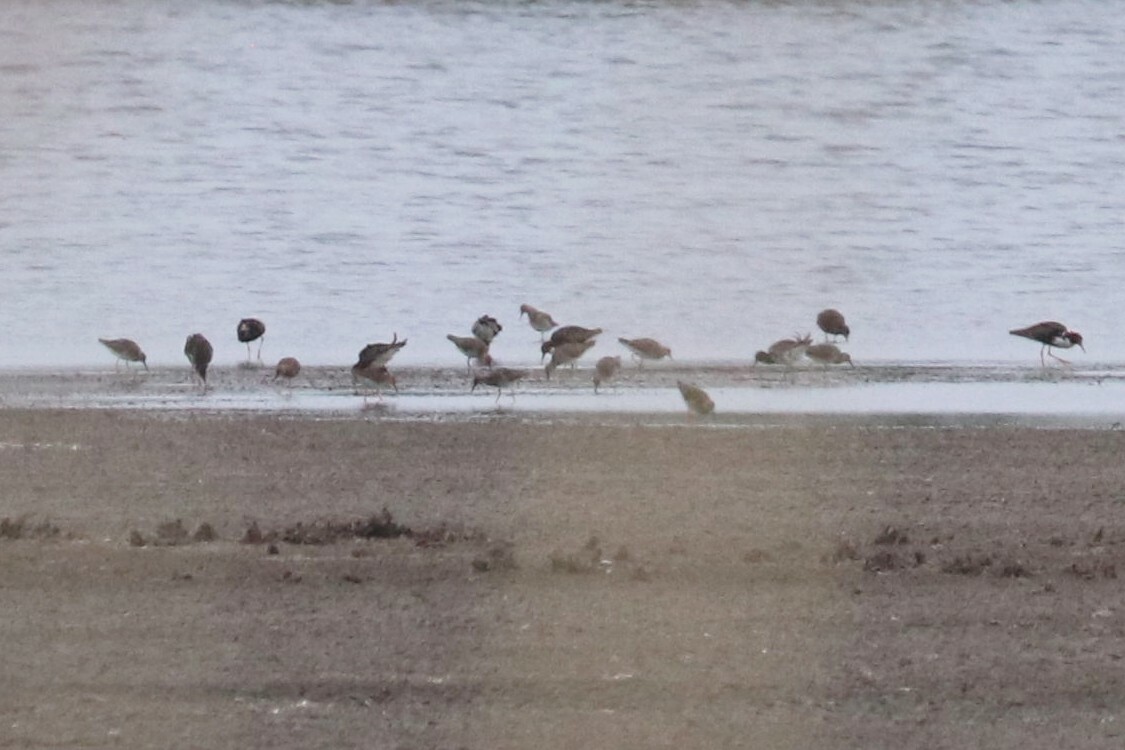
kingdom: Animalia
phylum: Chordata
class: Aves
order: Charadriiformes
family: Scolopacidae
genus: Calidris
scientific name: Calidris pugnax
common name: Ruff
